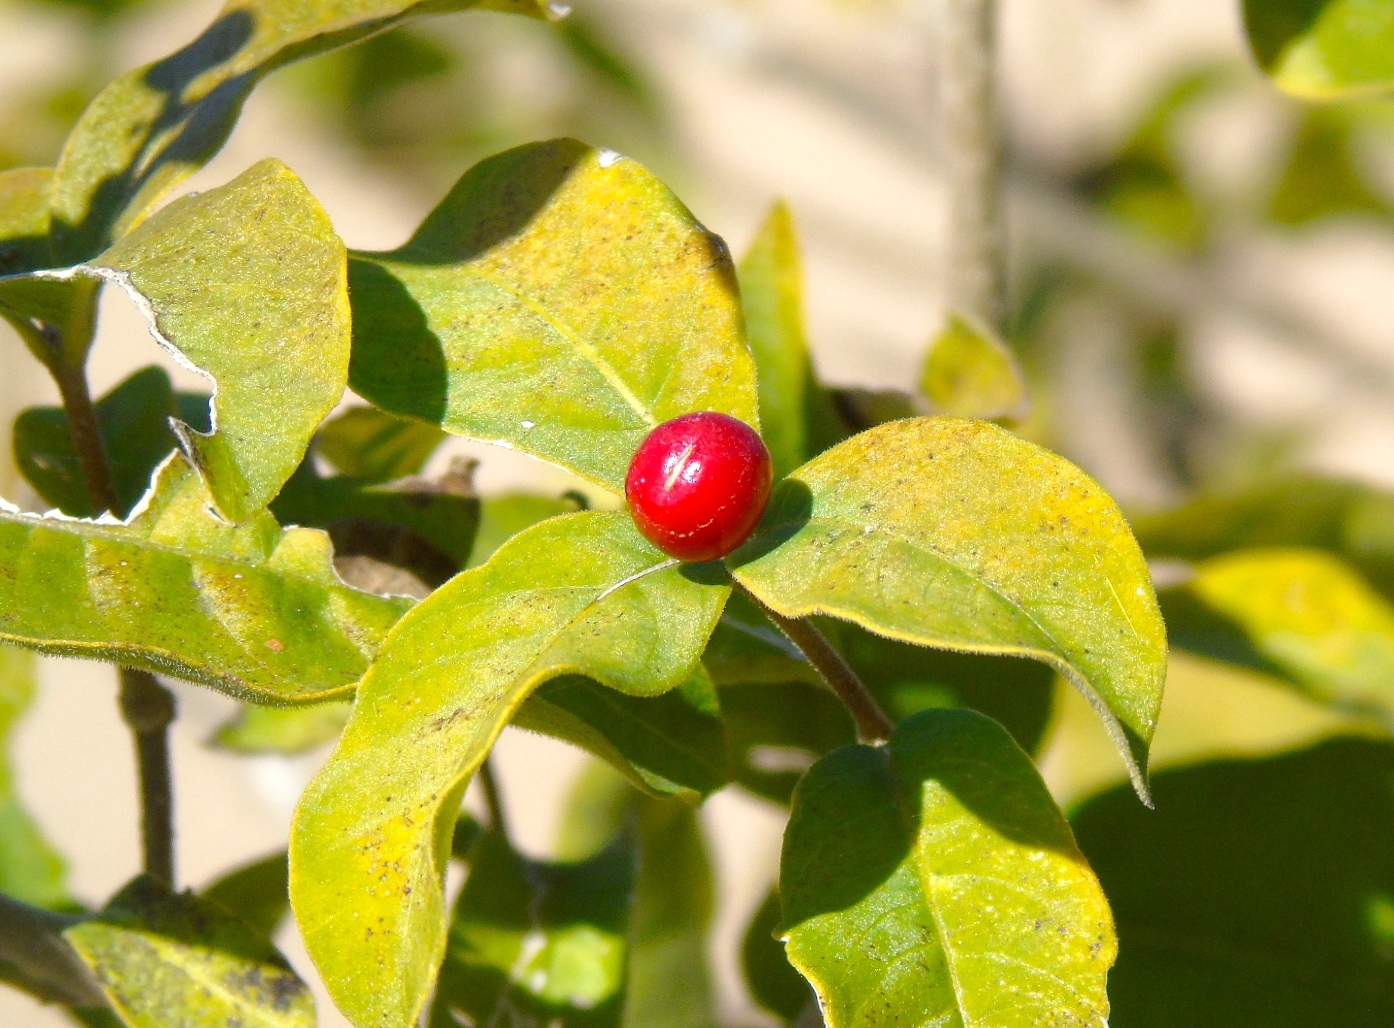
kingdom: Plantae
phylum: Tracheophyta
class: Magnoliopsida
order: Gentianales
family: Apocynaceae
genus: Rauvolfia
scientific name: Rauvolfia tetraphylla
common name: Four-leaf devil-pepper
